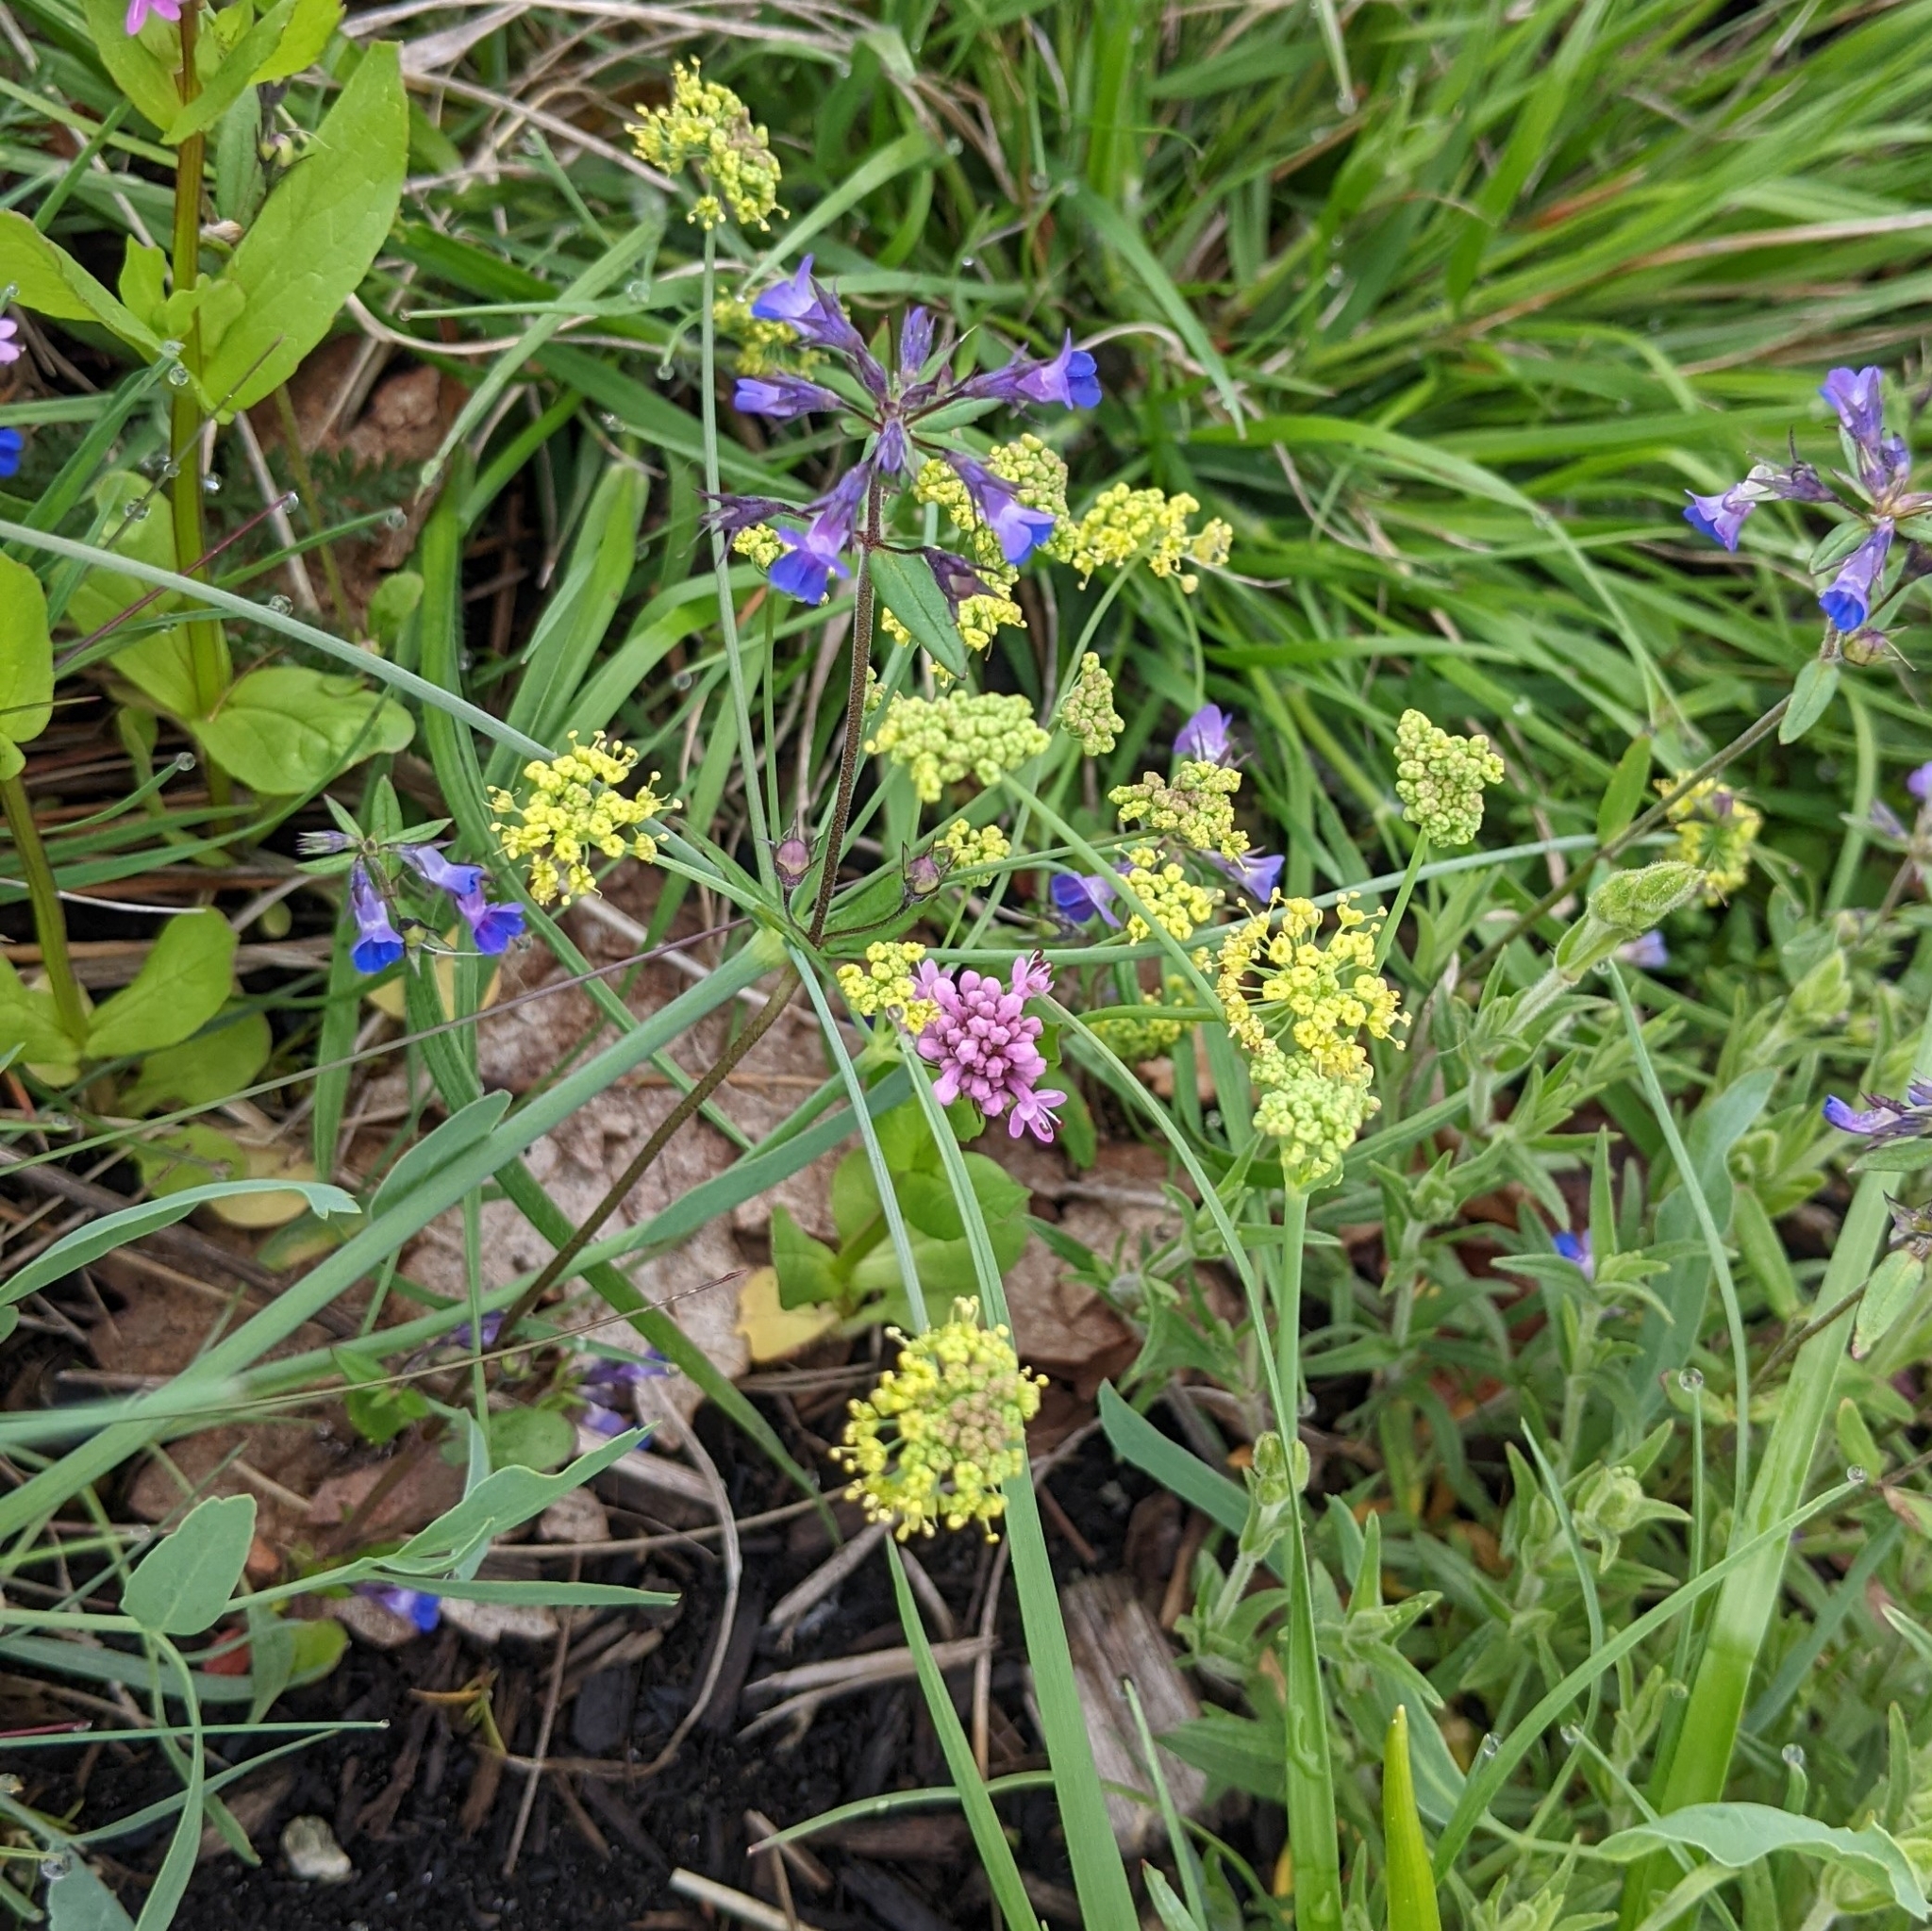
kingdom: Plantae
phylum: Tracheophyta
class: Magnoliopsida
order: Apiales
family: Apiaceae
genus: Lomatium
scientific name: Lomatium nudicaule
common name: Pestle lomatium
